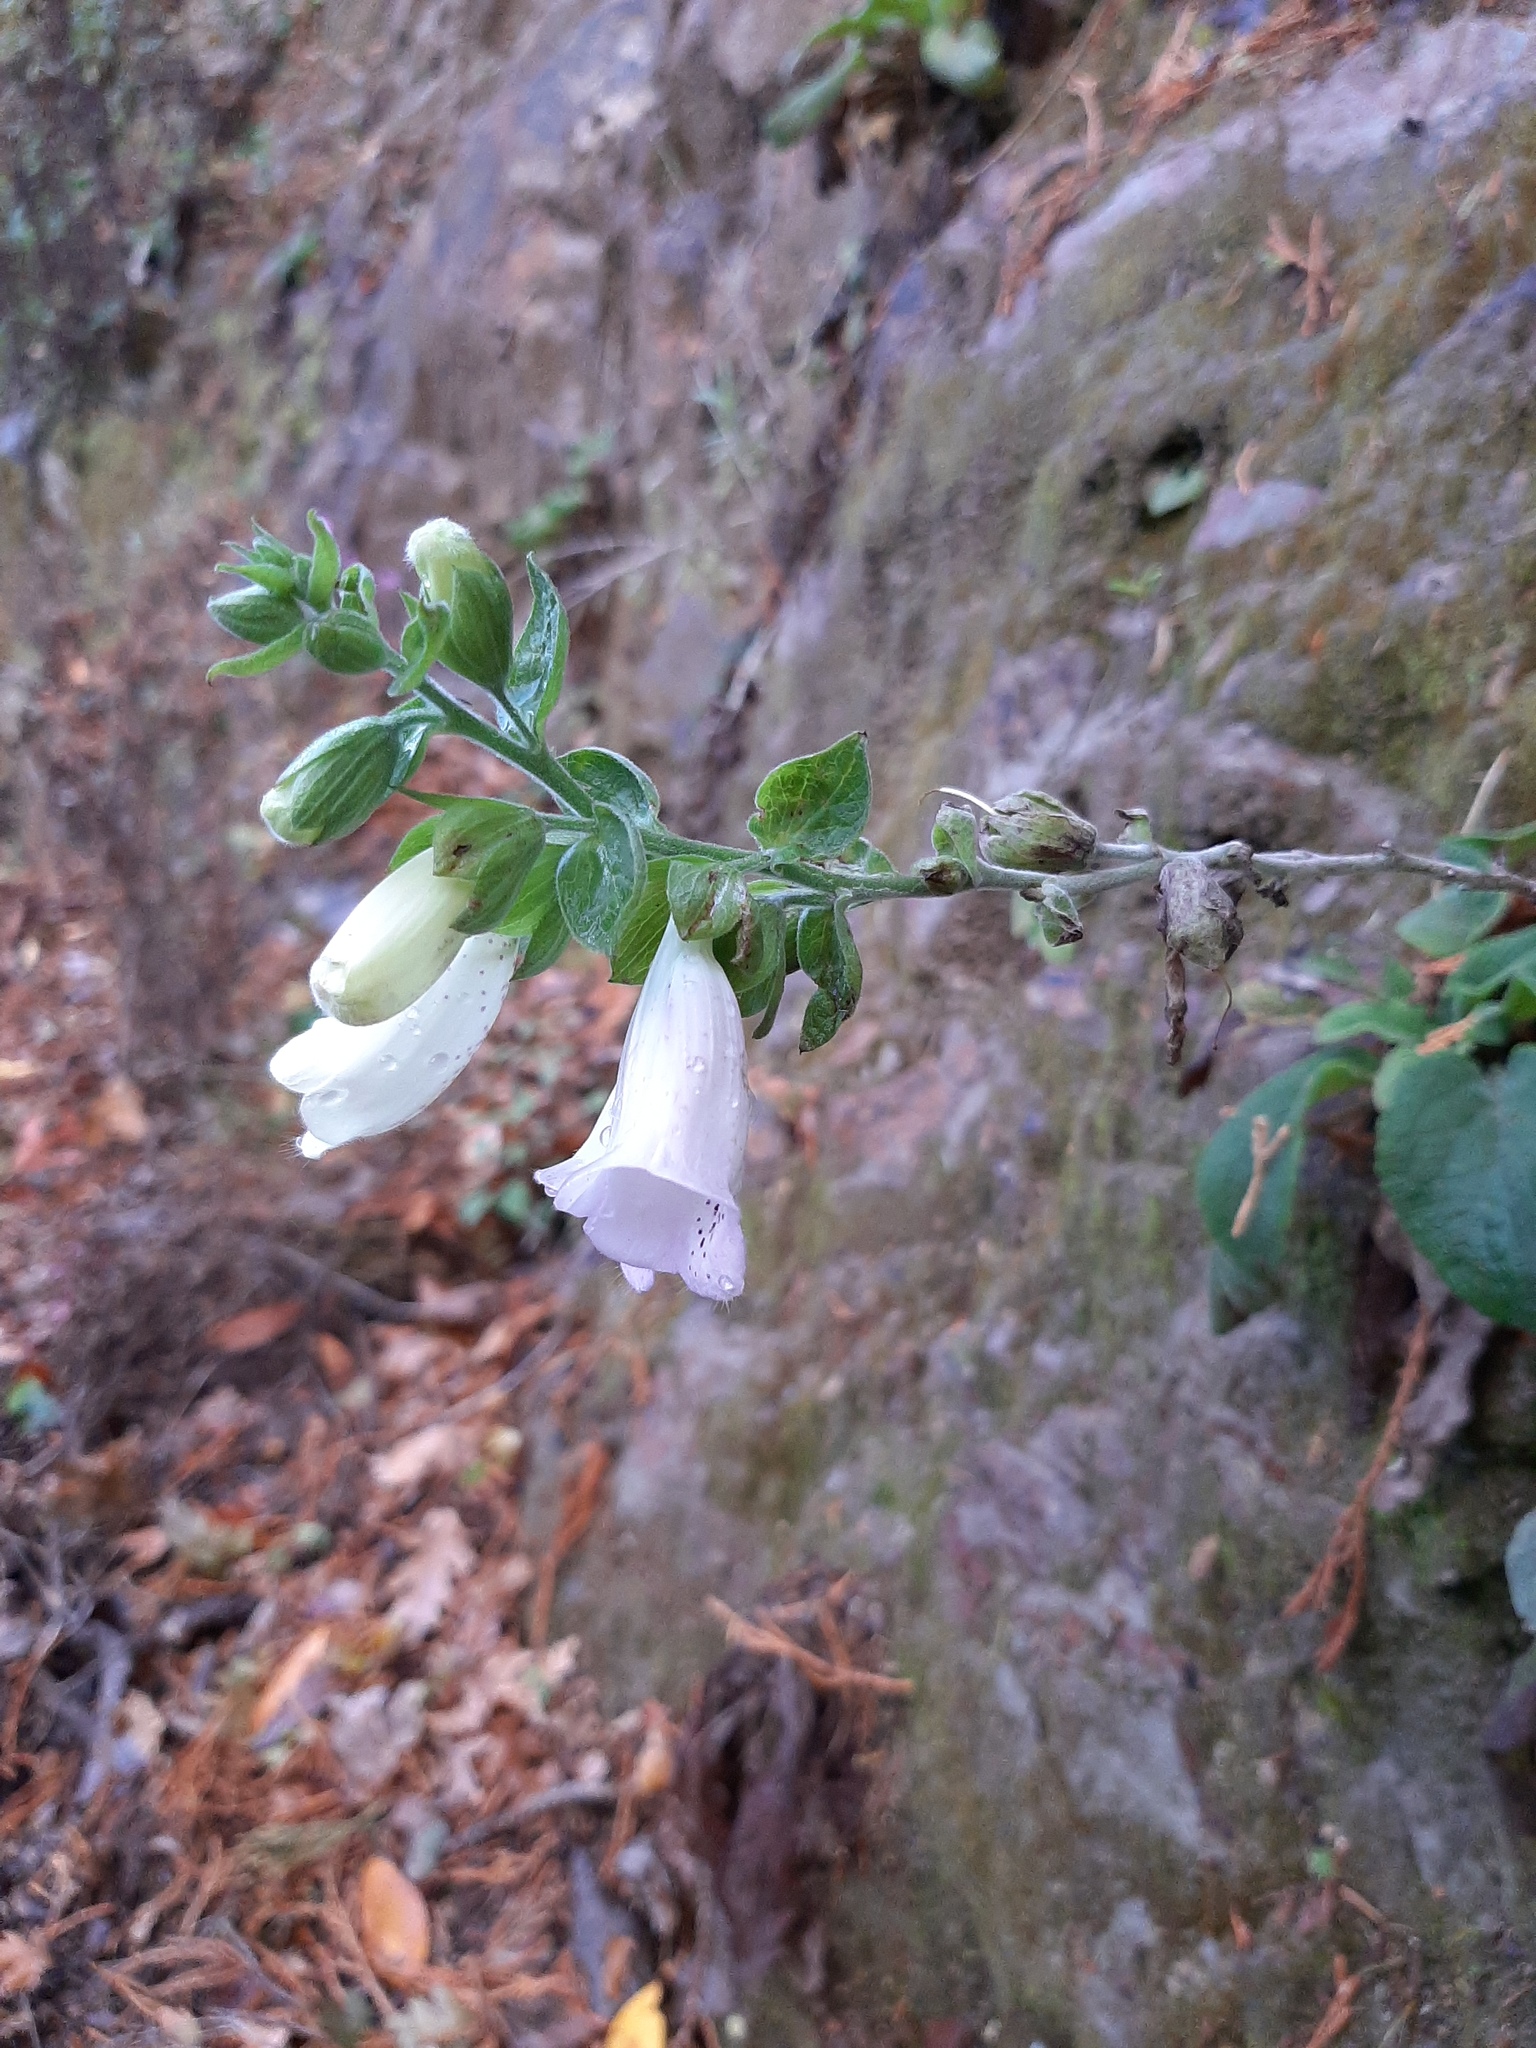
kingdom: Plantae
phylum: Tracheophyta
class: Magnoliopsida
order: Lamiales
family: Plantaginaceae
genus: Digitalis
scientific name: Digitalis purpurea
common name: Foxglove
